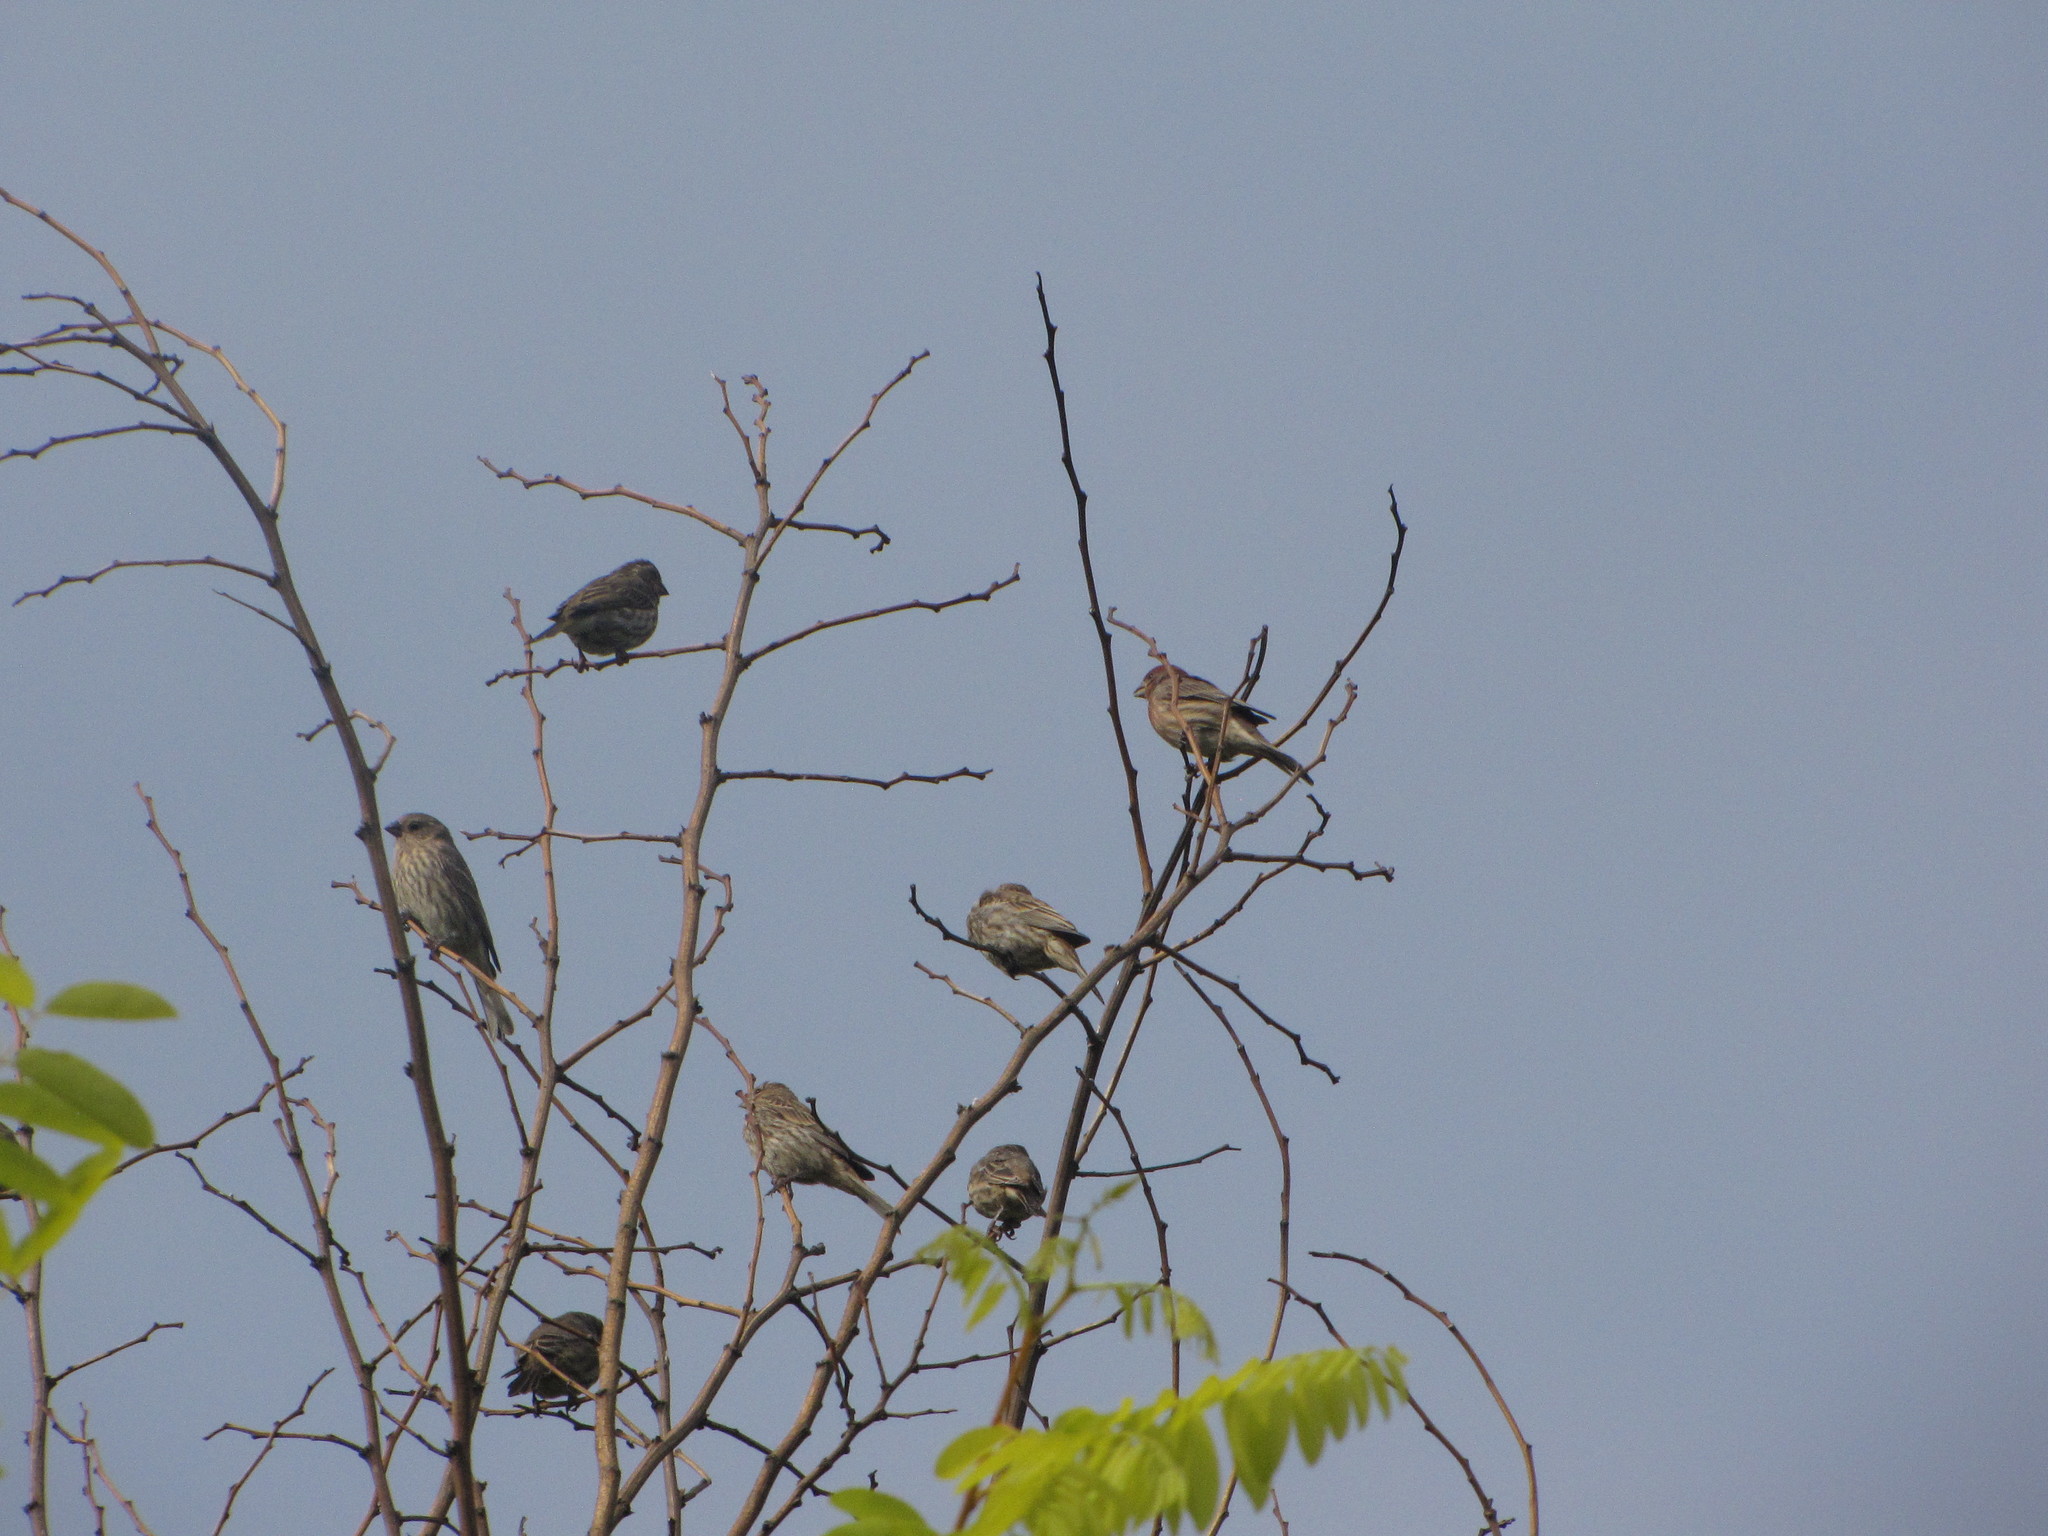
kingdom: Animalia
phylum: Chordata
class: Aves
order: Passeriformes
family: Fringillidae
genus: Haemorhous
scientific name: Haemorhous mexicanus
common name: House finch
